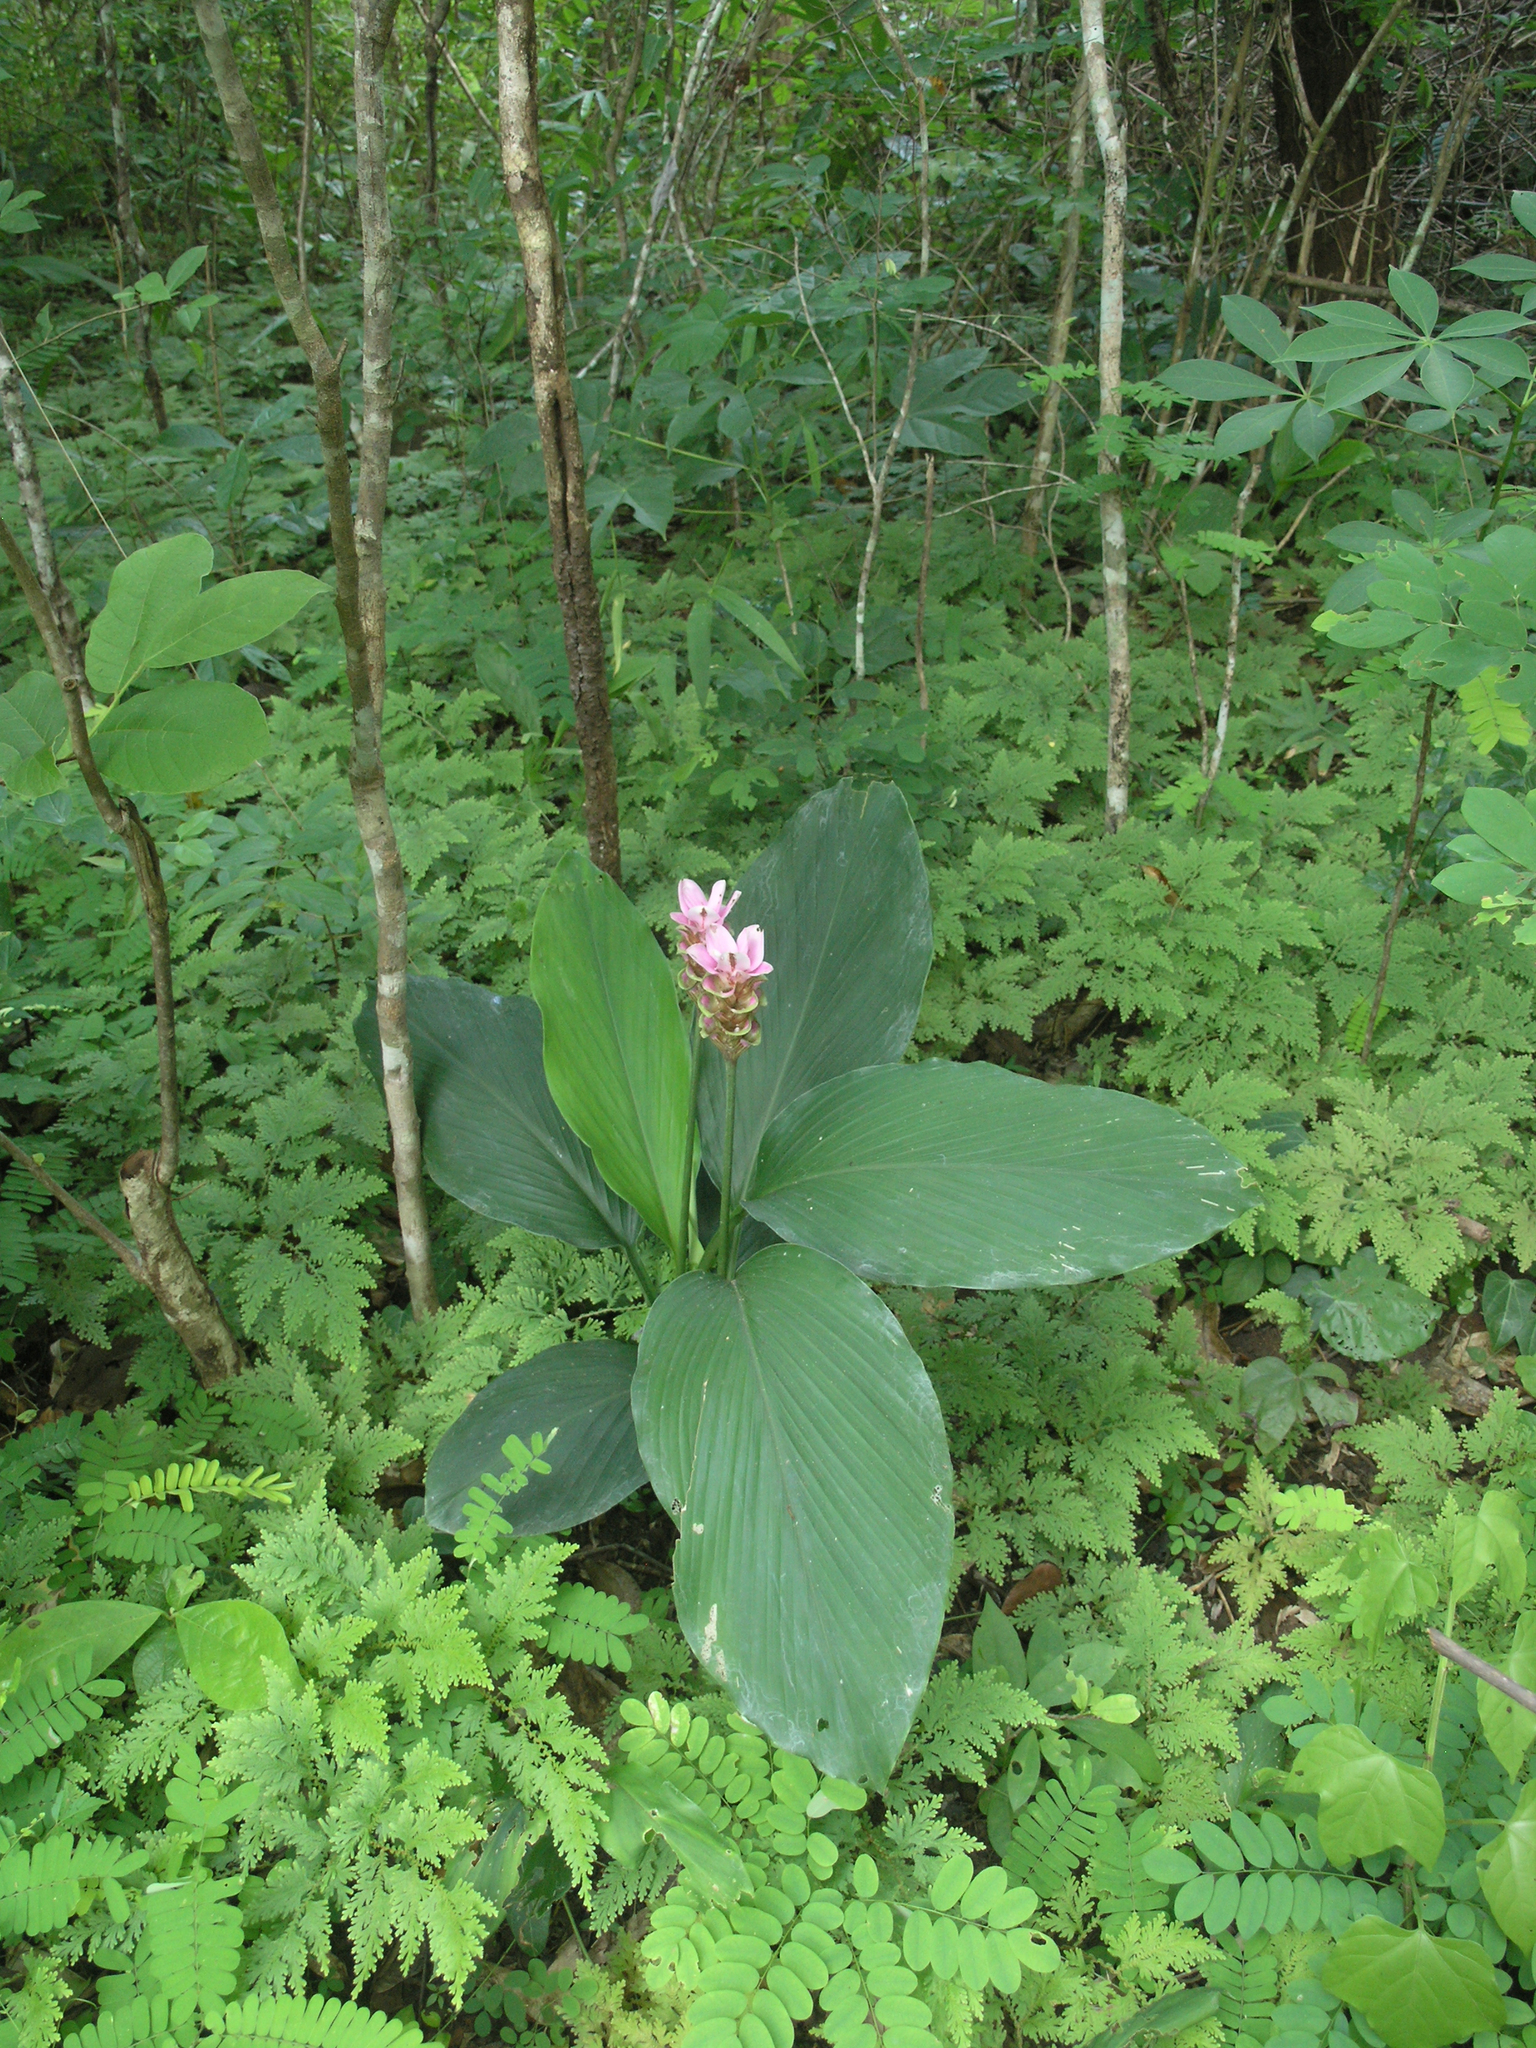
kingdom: Plantae
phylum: Tracheophyta
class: Liliopsida
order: Zingiberales
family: Zingiberaceae
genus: Curcuma
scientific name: Curcuma rhabdota
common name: Candy cane
